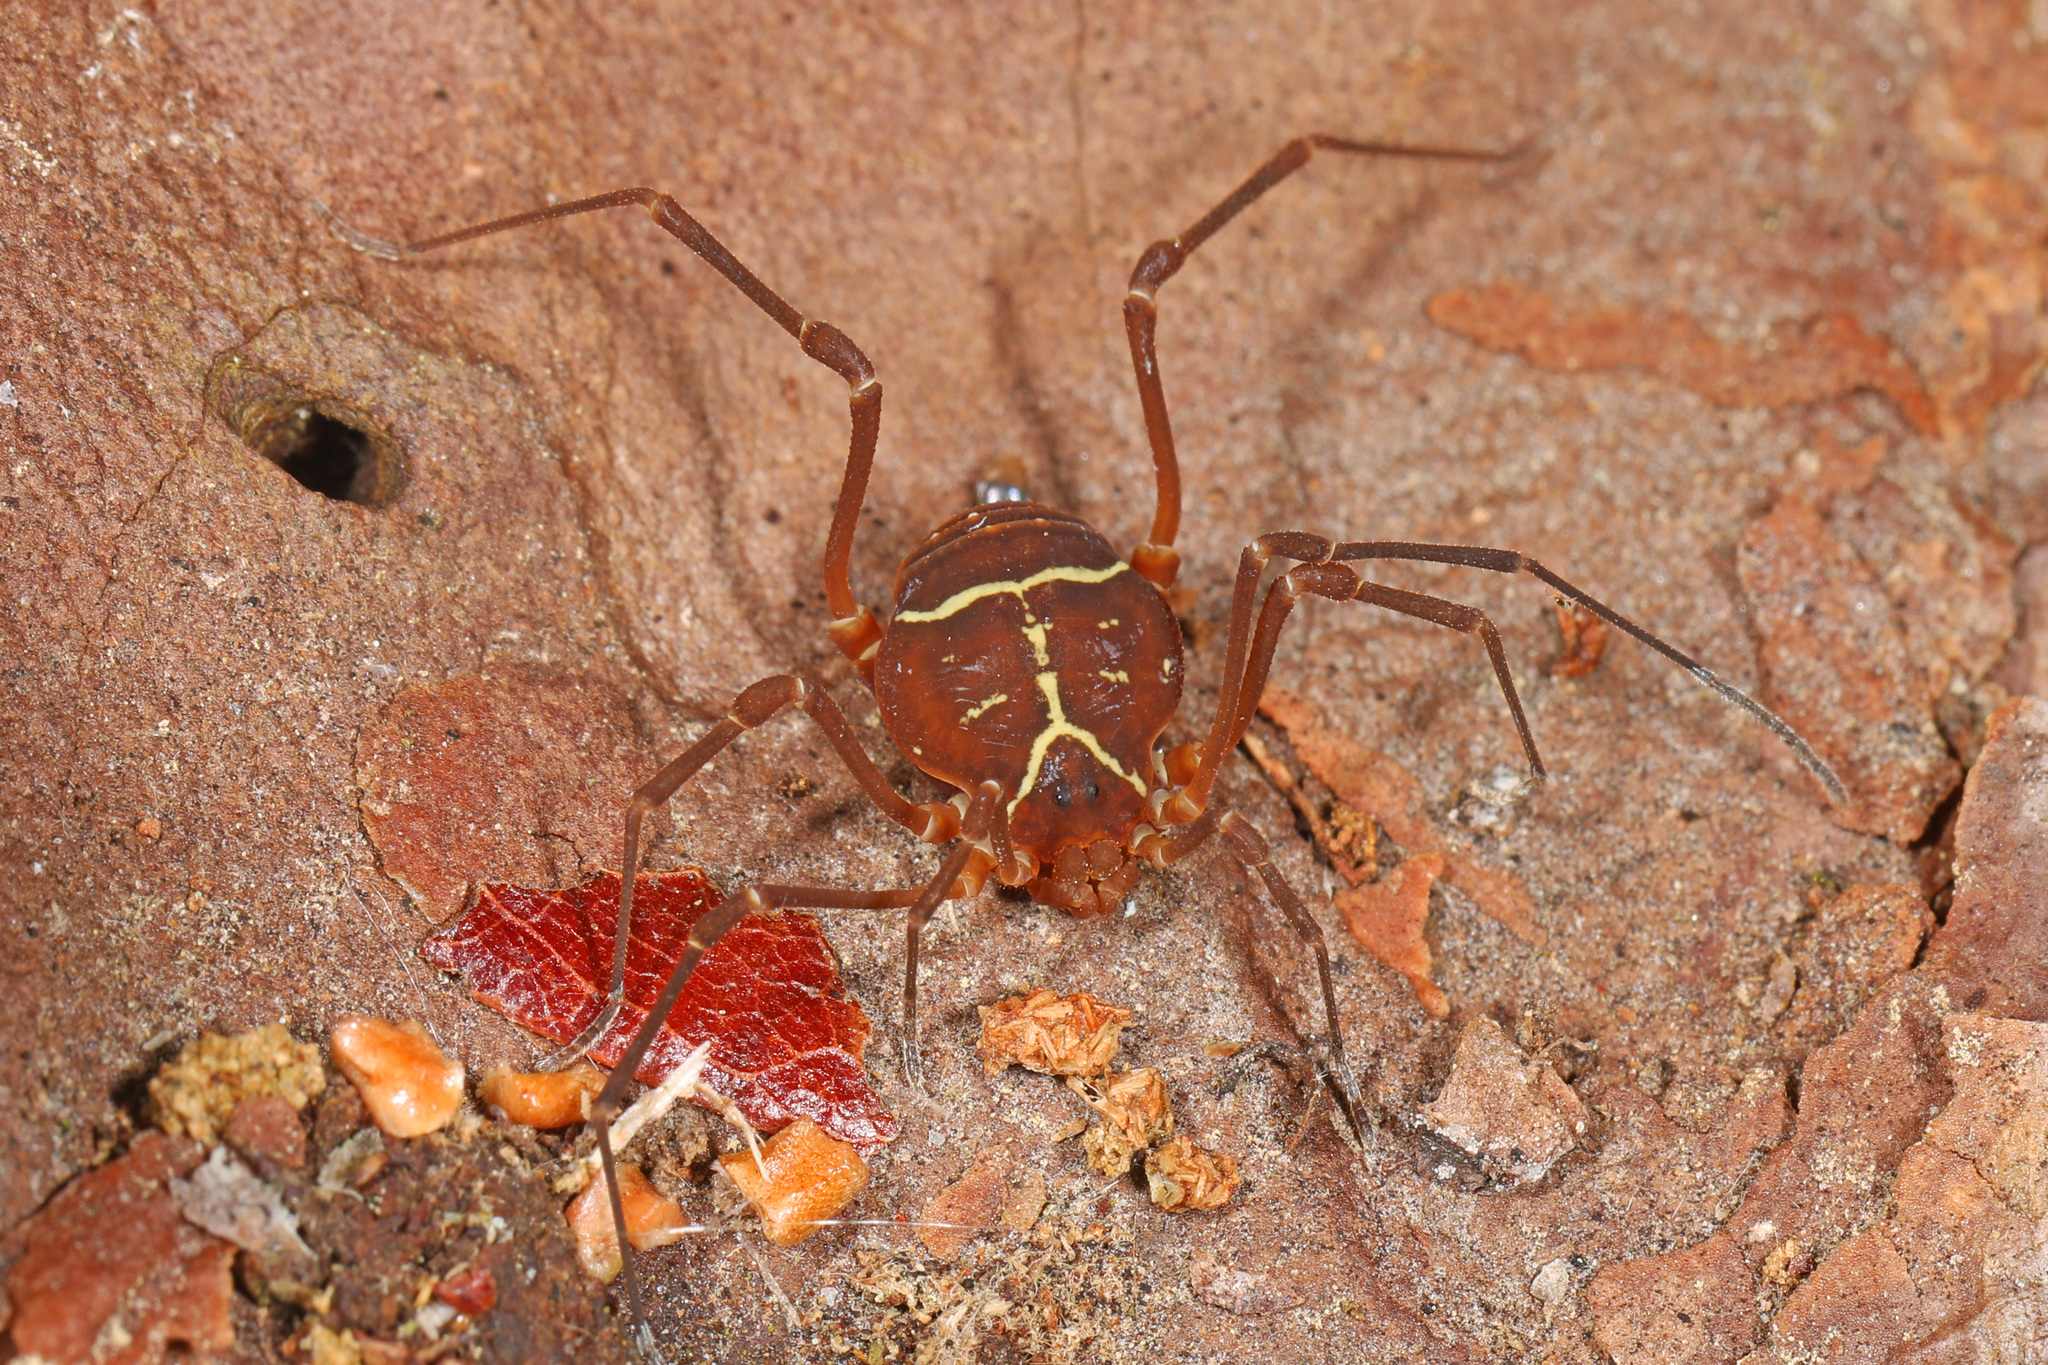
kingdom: Animalia
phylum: Arthropoda
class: Arachnida
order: Opiliones
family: Cosmetidae
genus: Libitioides
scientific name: Libitioides sayi
